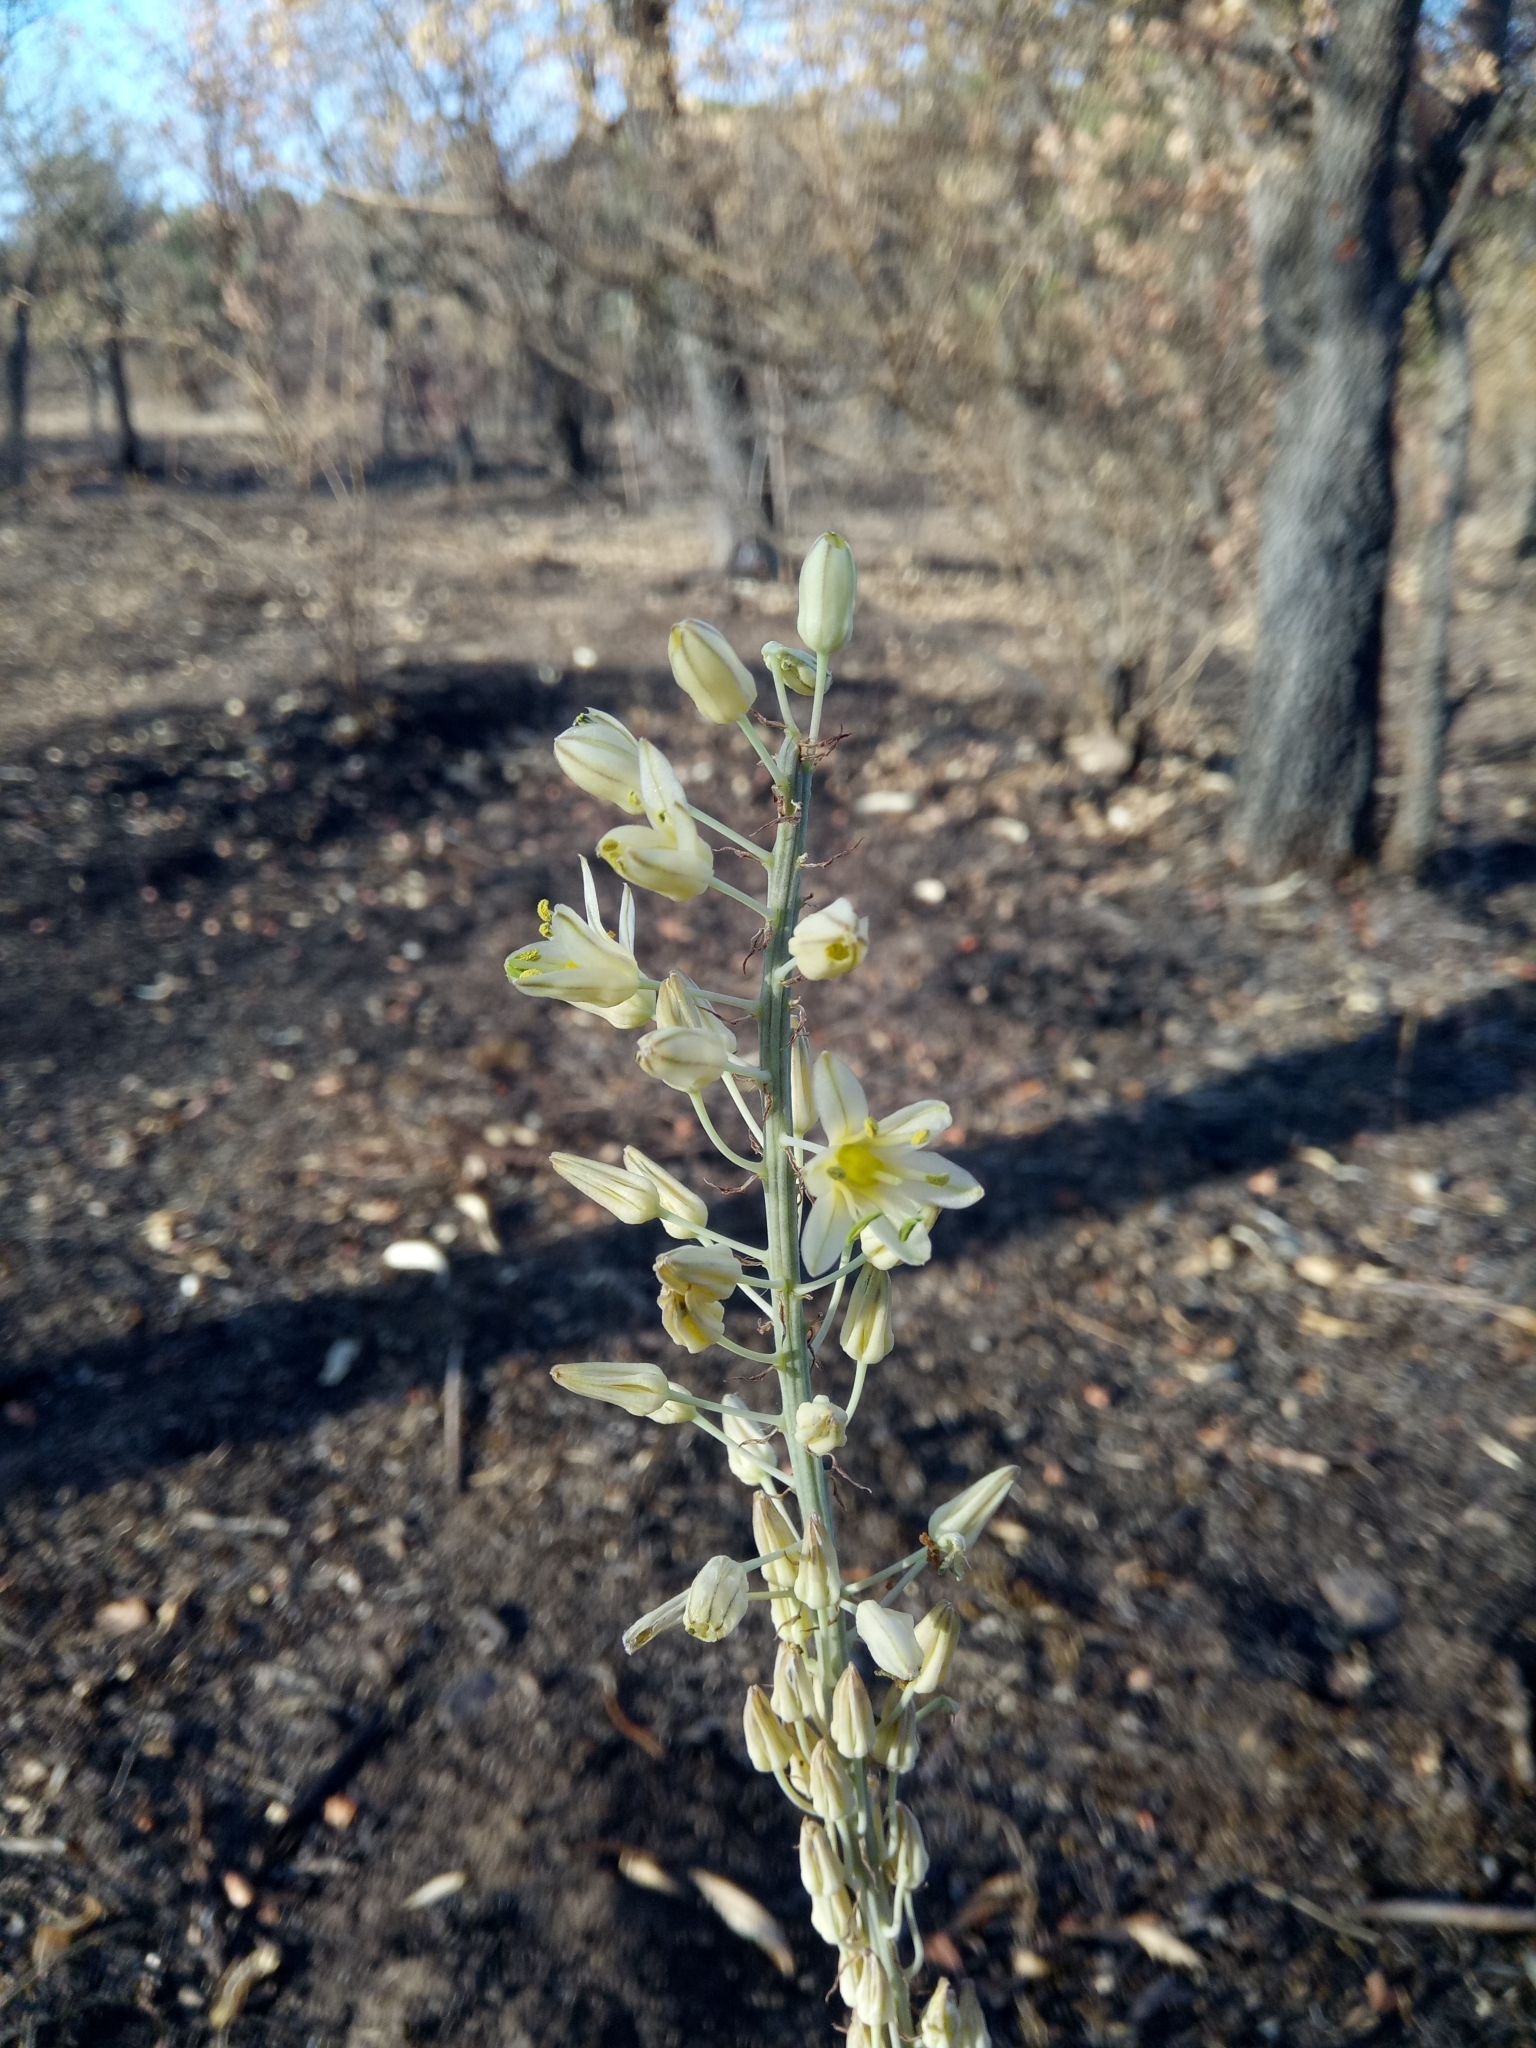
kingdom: Plantae
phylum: Tracheophyta
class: Liliopsida
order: Asparagales
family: Asparagaceae
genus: Drimia
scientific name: Drimia anthericoides
